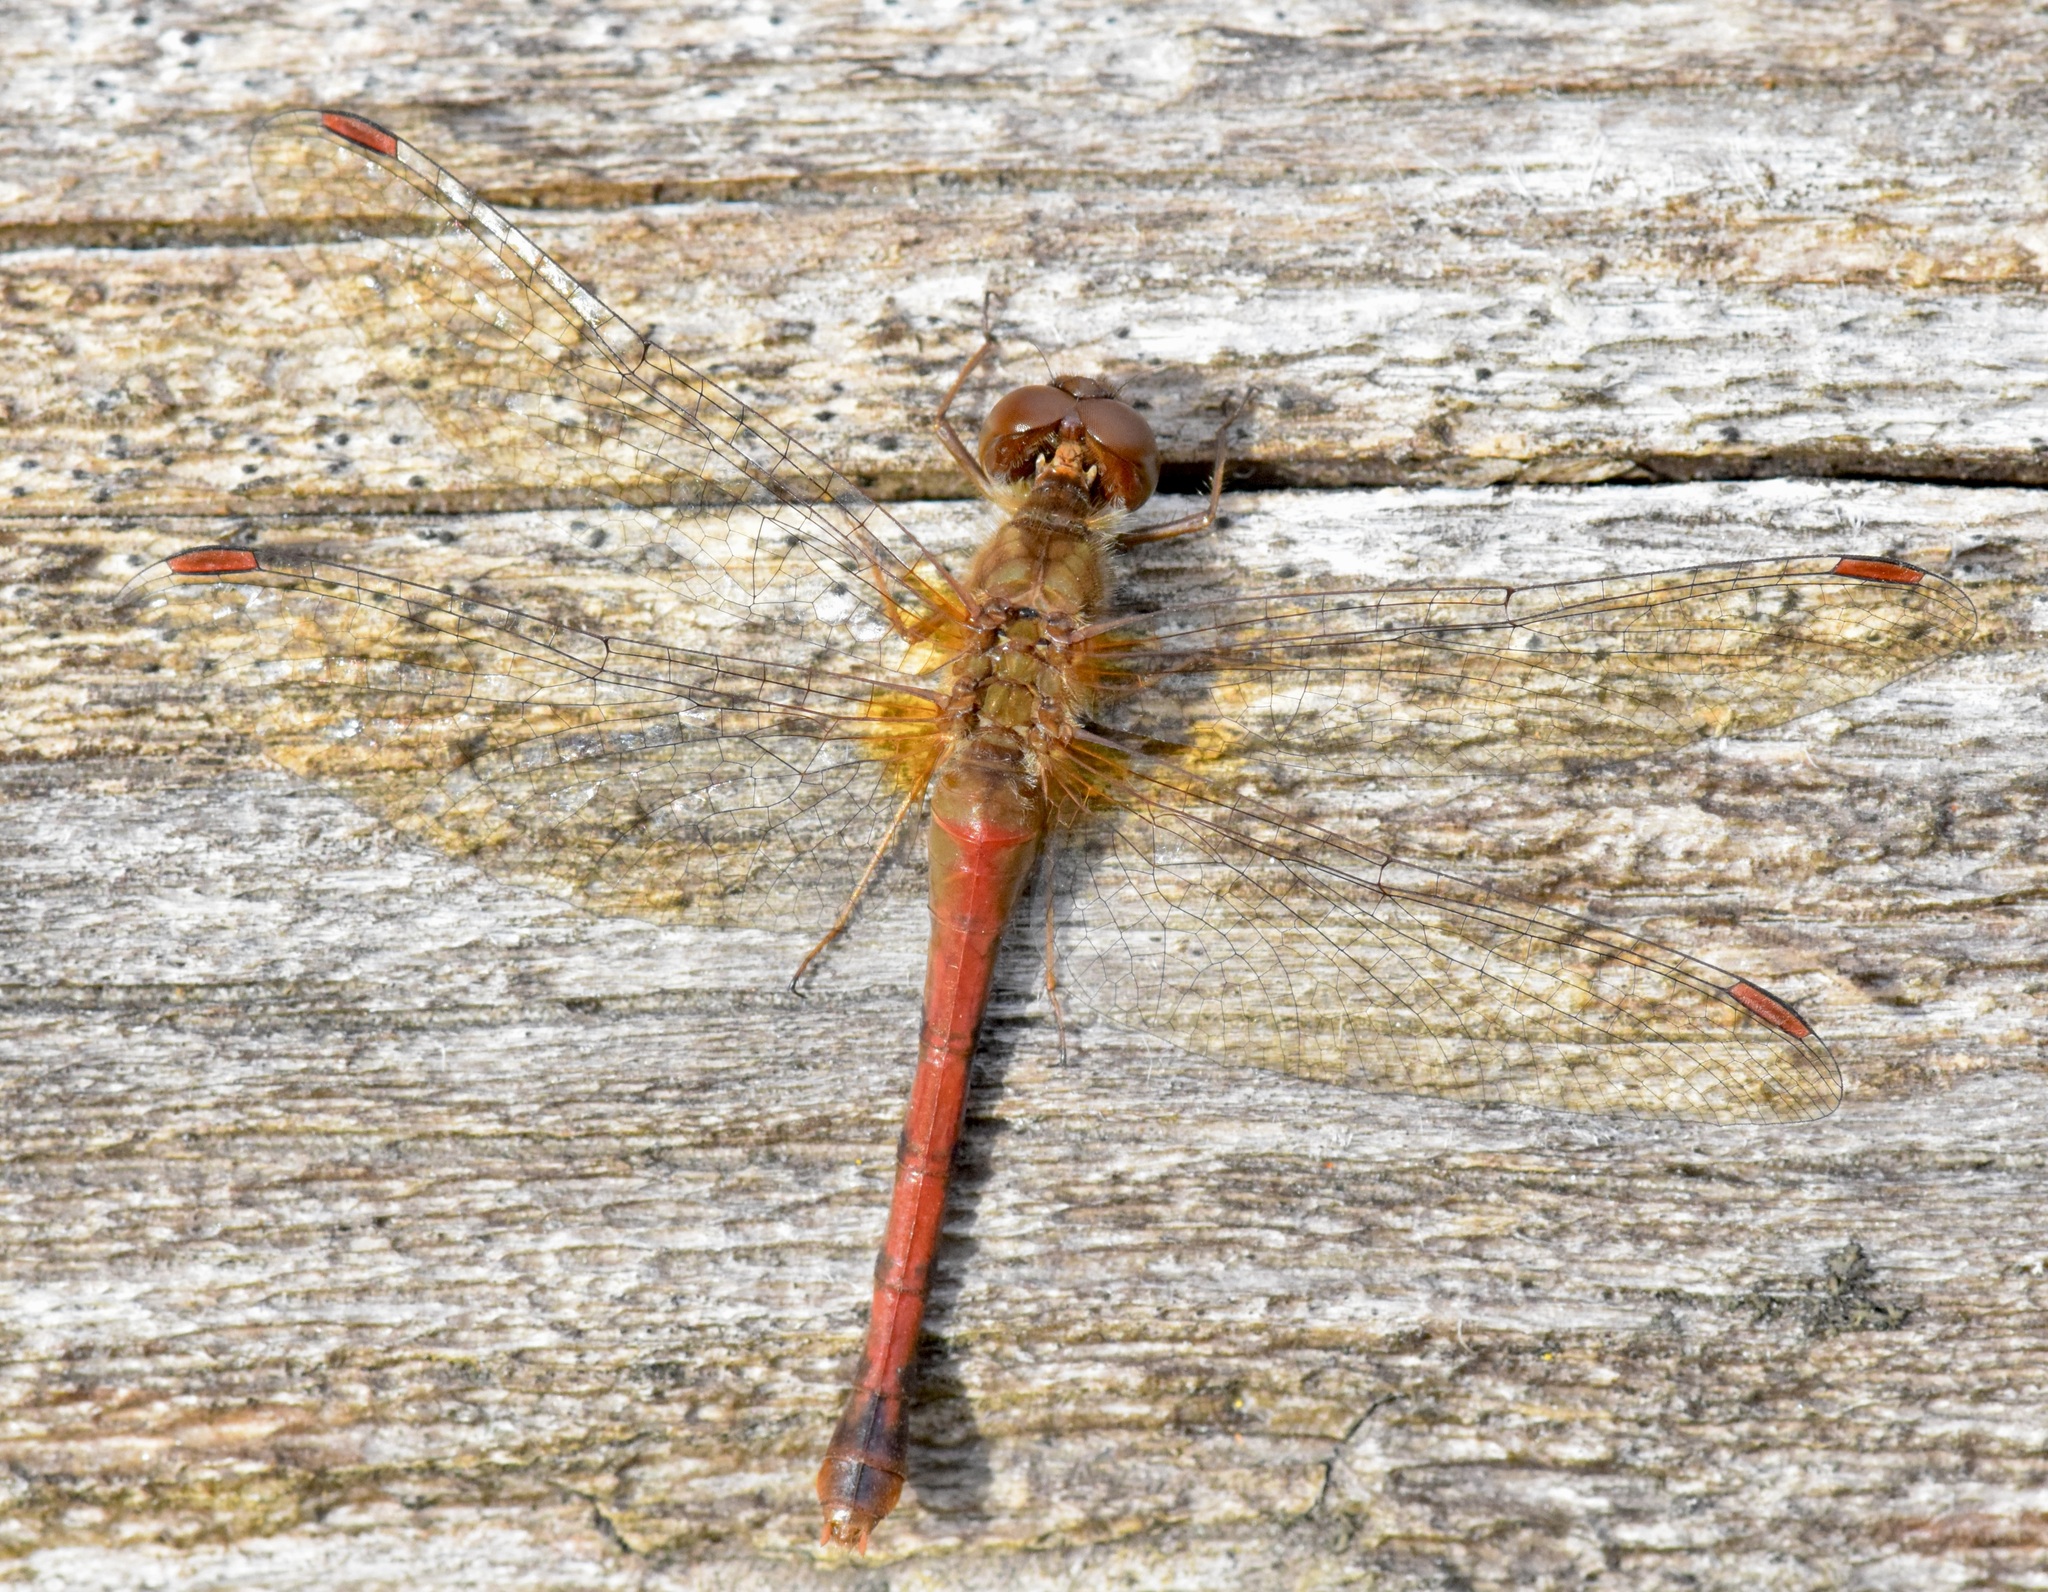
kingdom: Animalia
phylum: Arthropoda
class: Insecta
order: Odonata
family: Libellulidae
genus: Sympetrum
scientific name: Sympetrum vicinum
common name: Autumn meadowhawk
